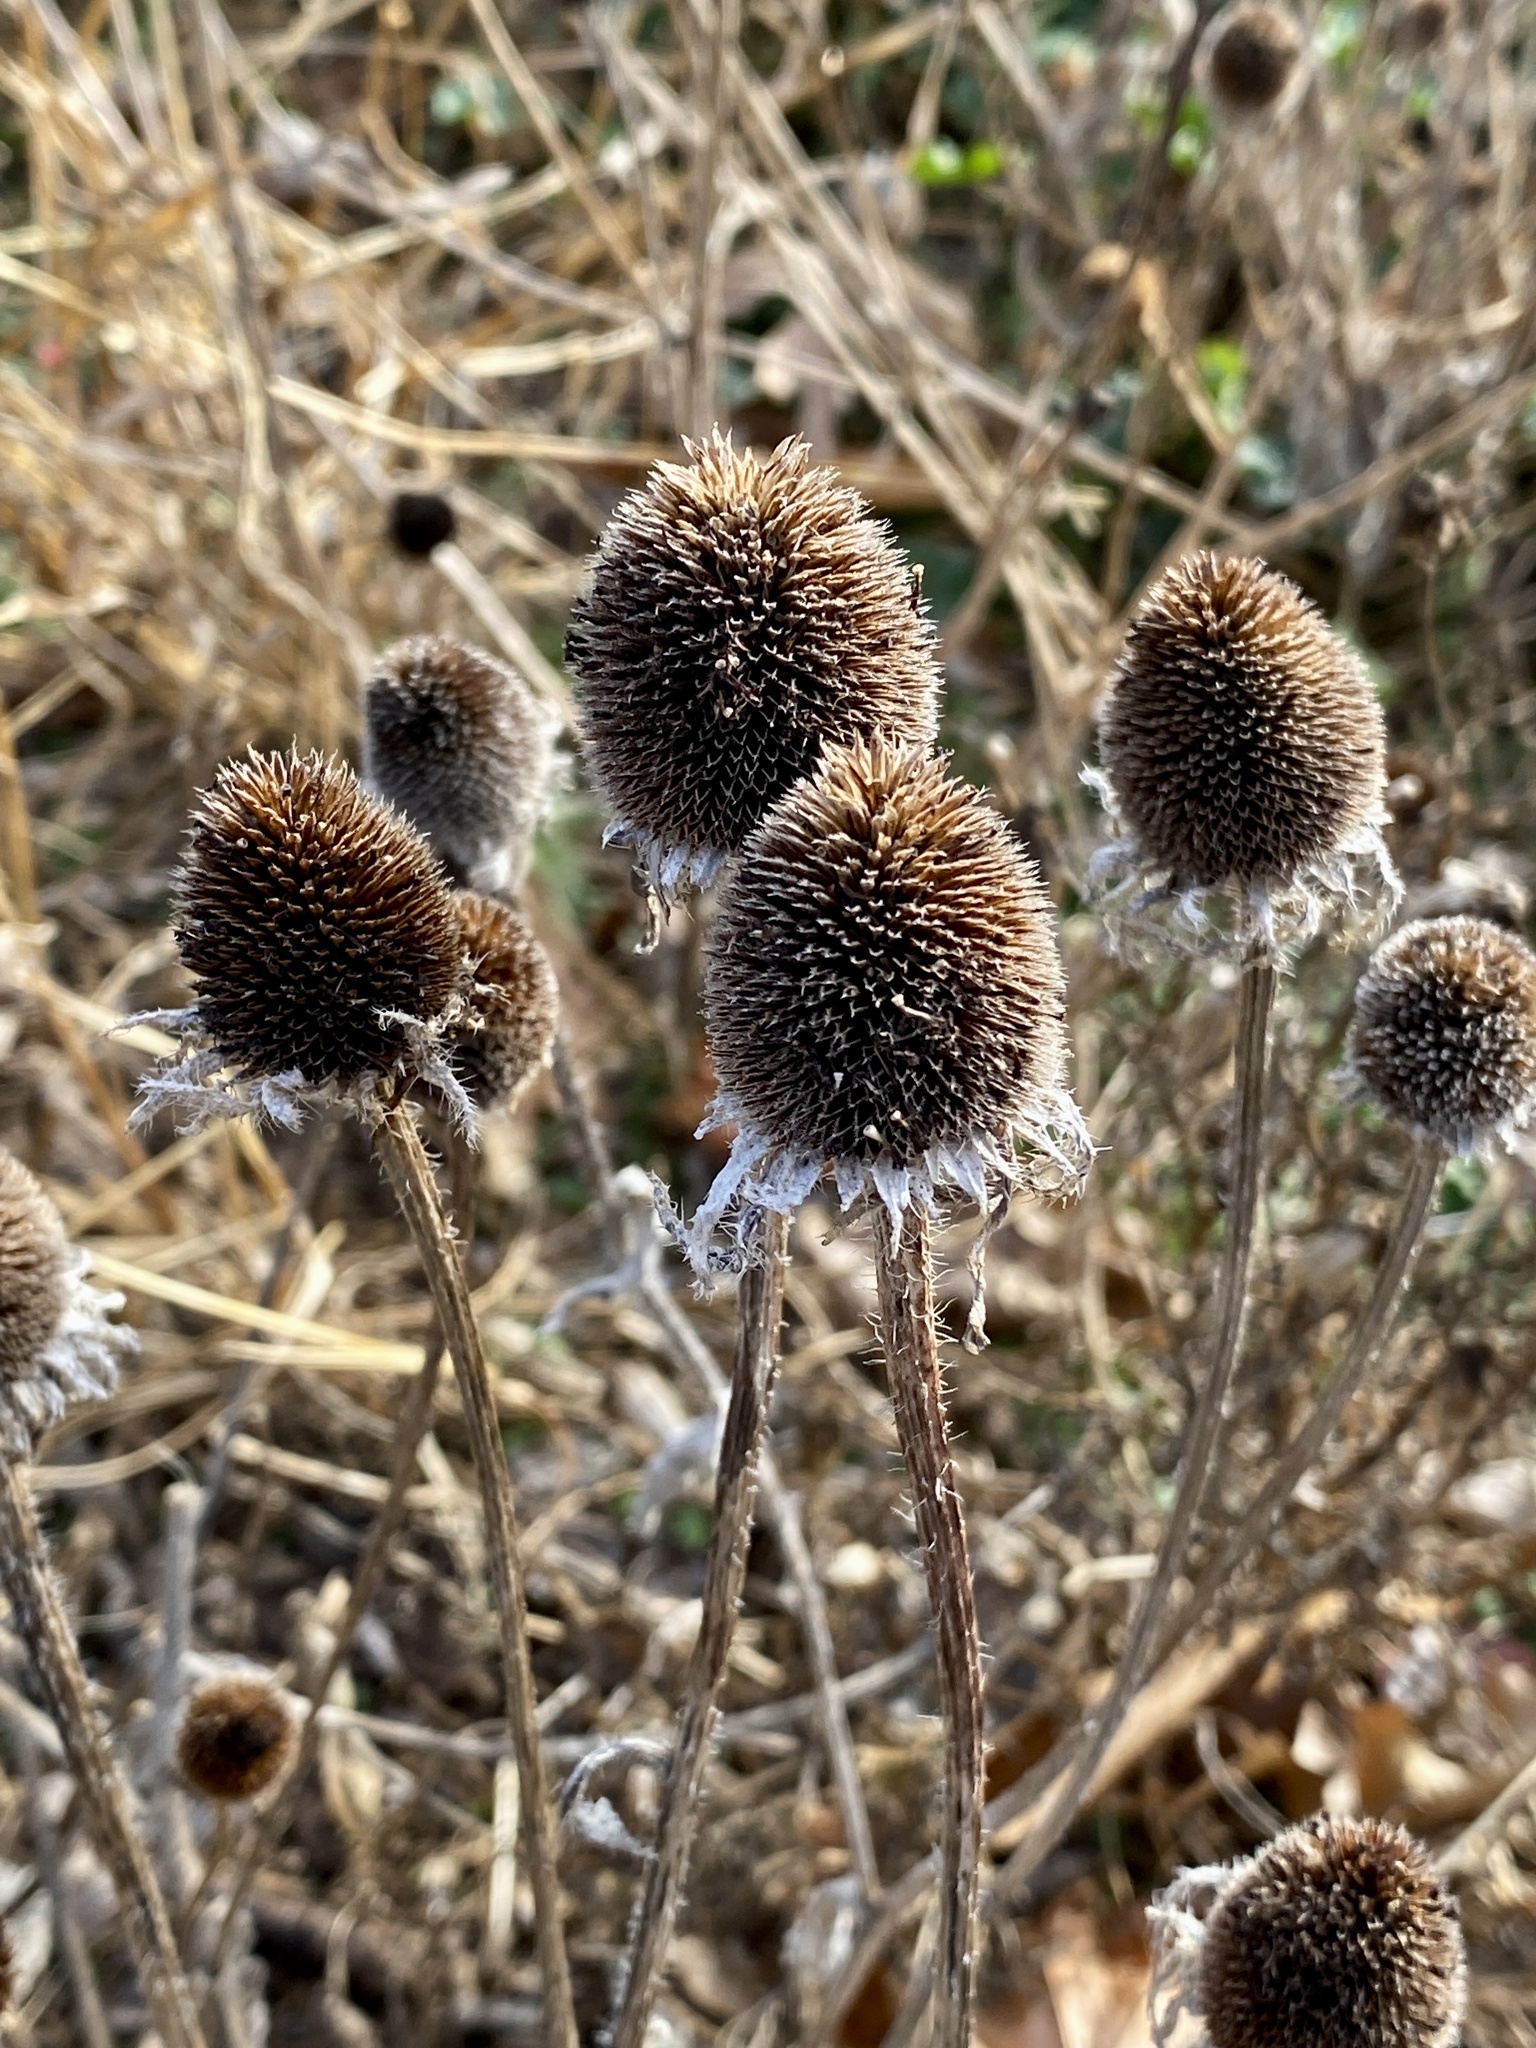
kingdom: Plantae
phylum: Tracheophyta
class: Magnoliopsida
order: Asterales
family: Asteraceae
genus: Rudbeckia
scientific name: Rudbeckia hirta
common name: Black-eyed-susan
